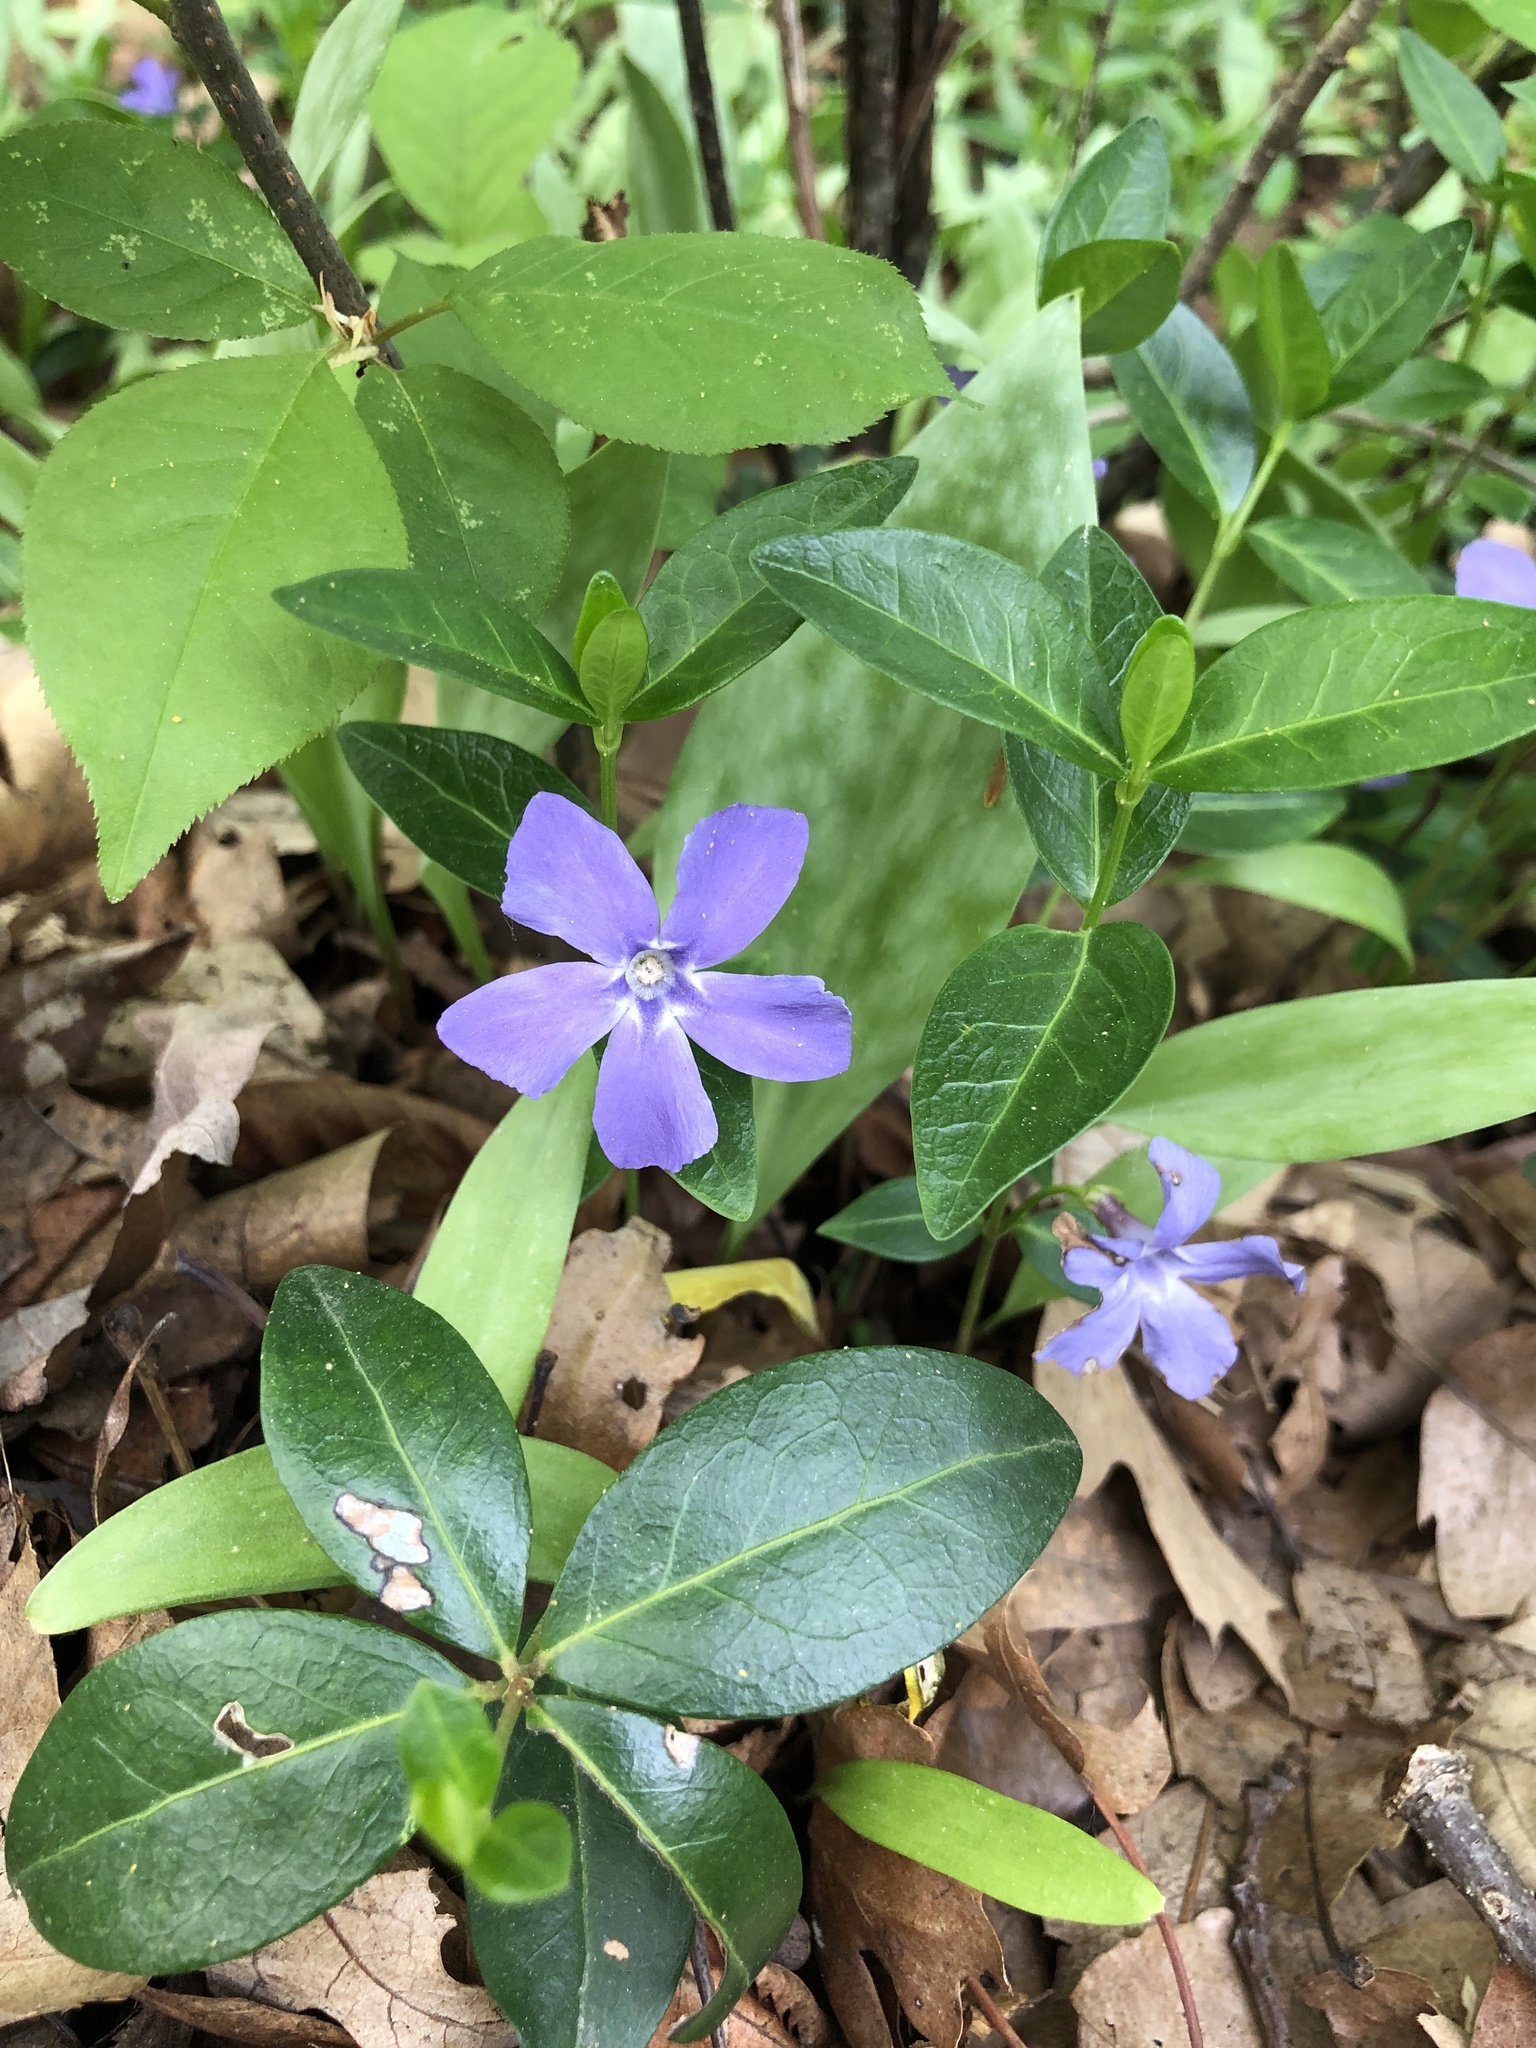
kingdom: Plantae
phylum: Tracheophyta
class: Magnoliopsida
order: Gentianales
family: Apocynaceae
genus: Vinca
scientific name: Vinca minor
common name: Lesser periwinkle
